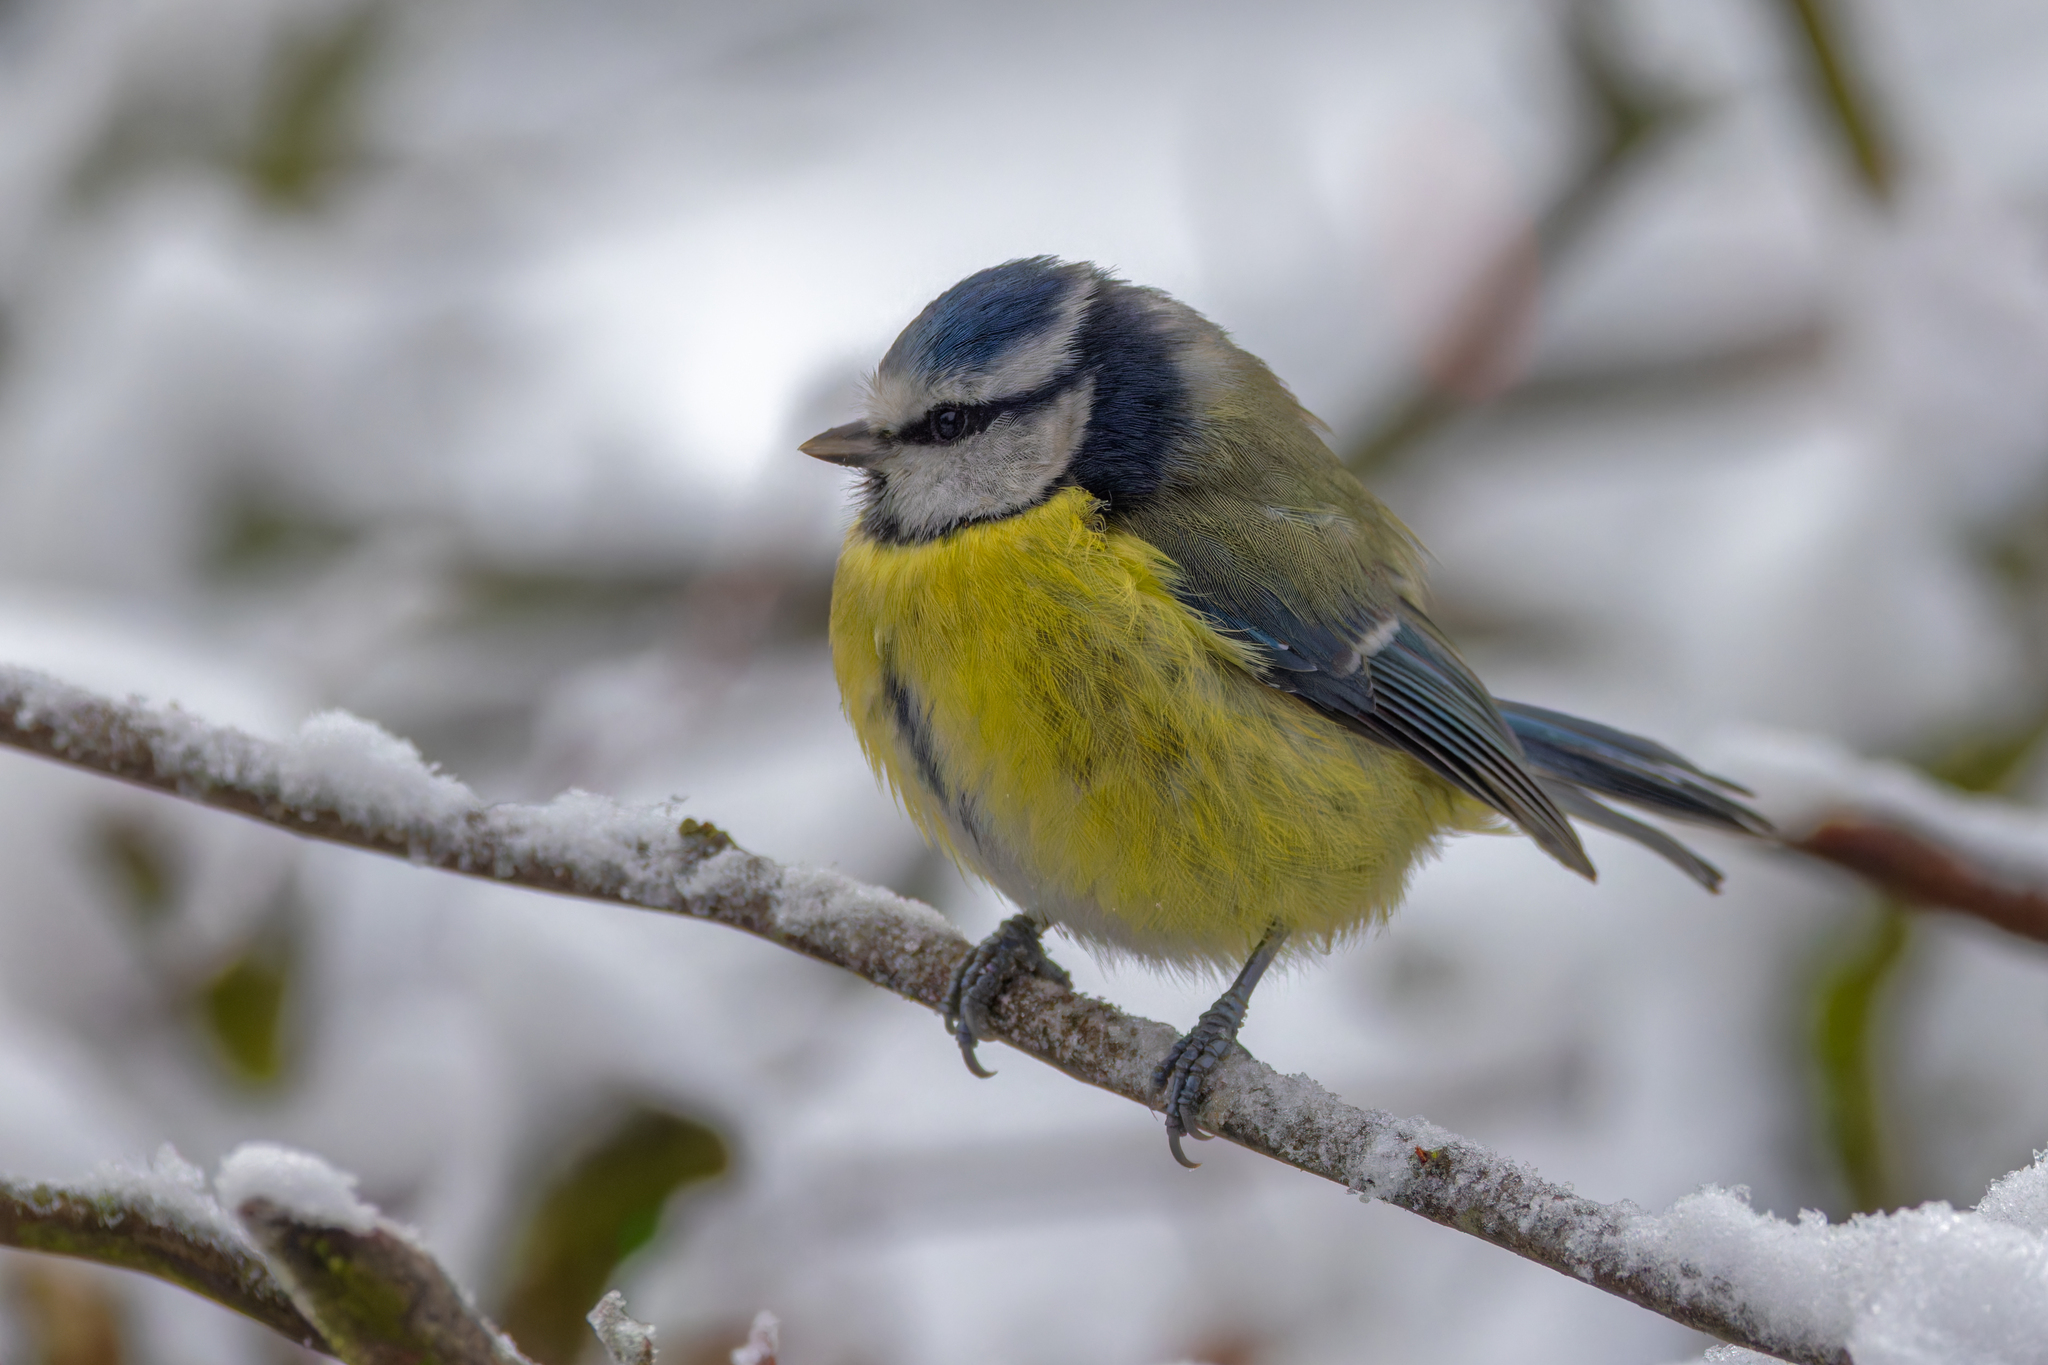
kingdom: Animalia
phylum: Chordata
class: Aves
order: Passeriformes
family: Paridae
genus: Cyanistes
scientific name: Cyanistes caeruleus
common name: Eurasian blue tit
